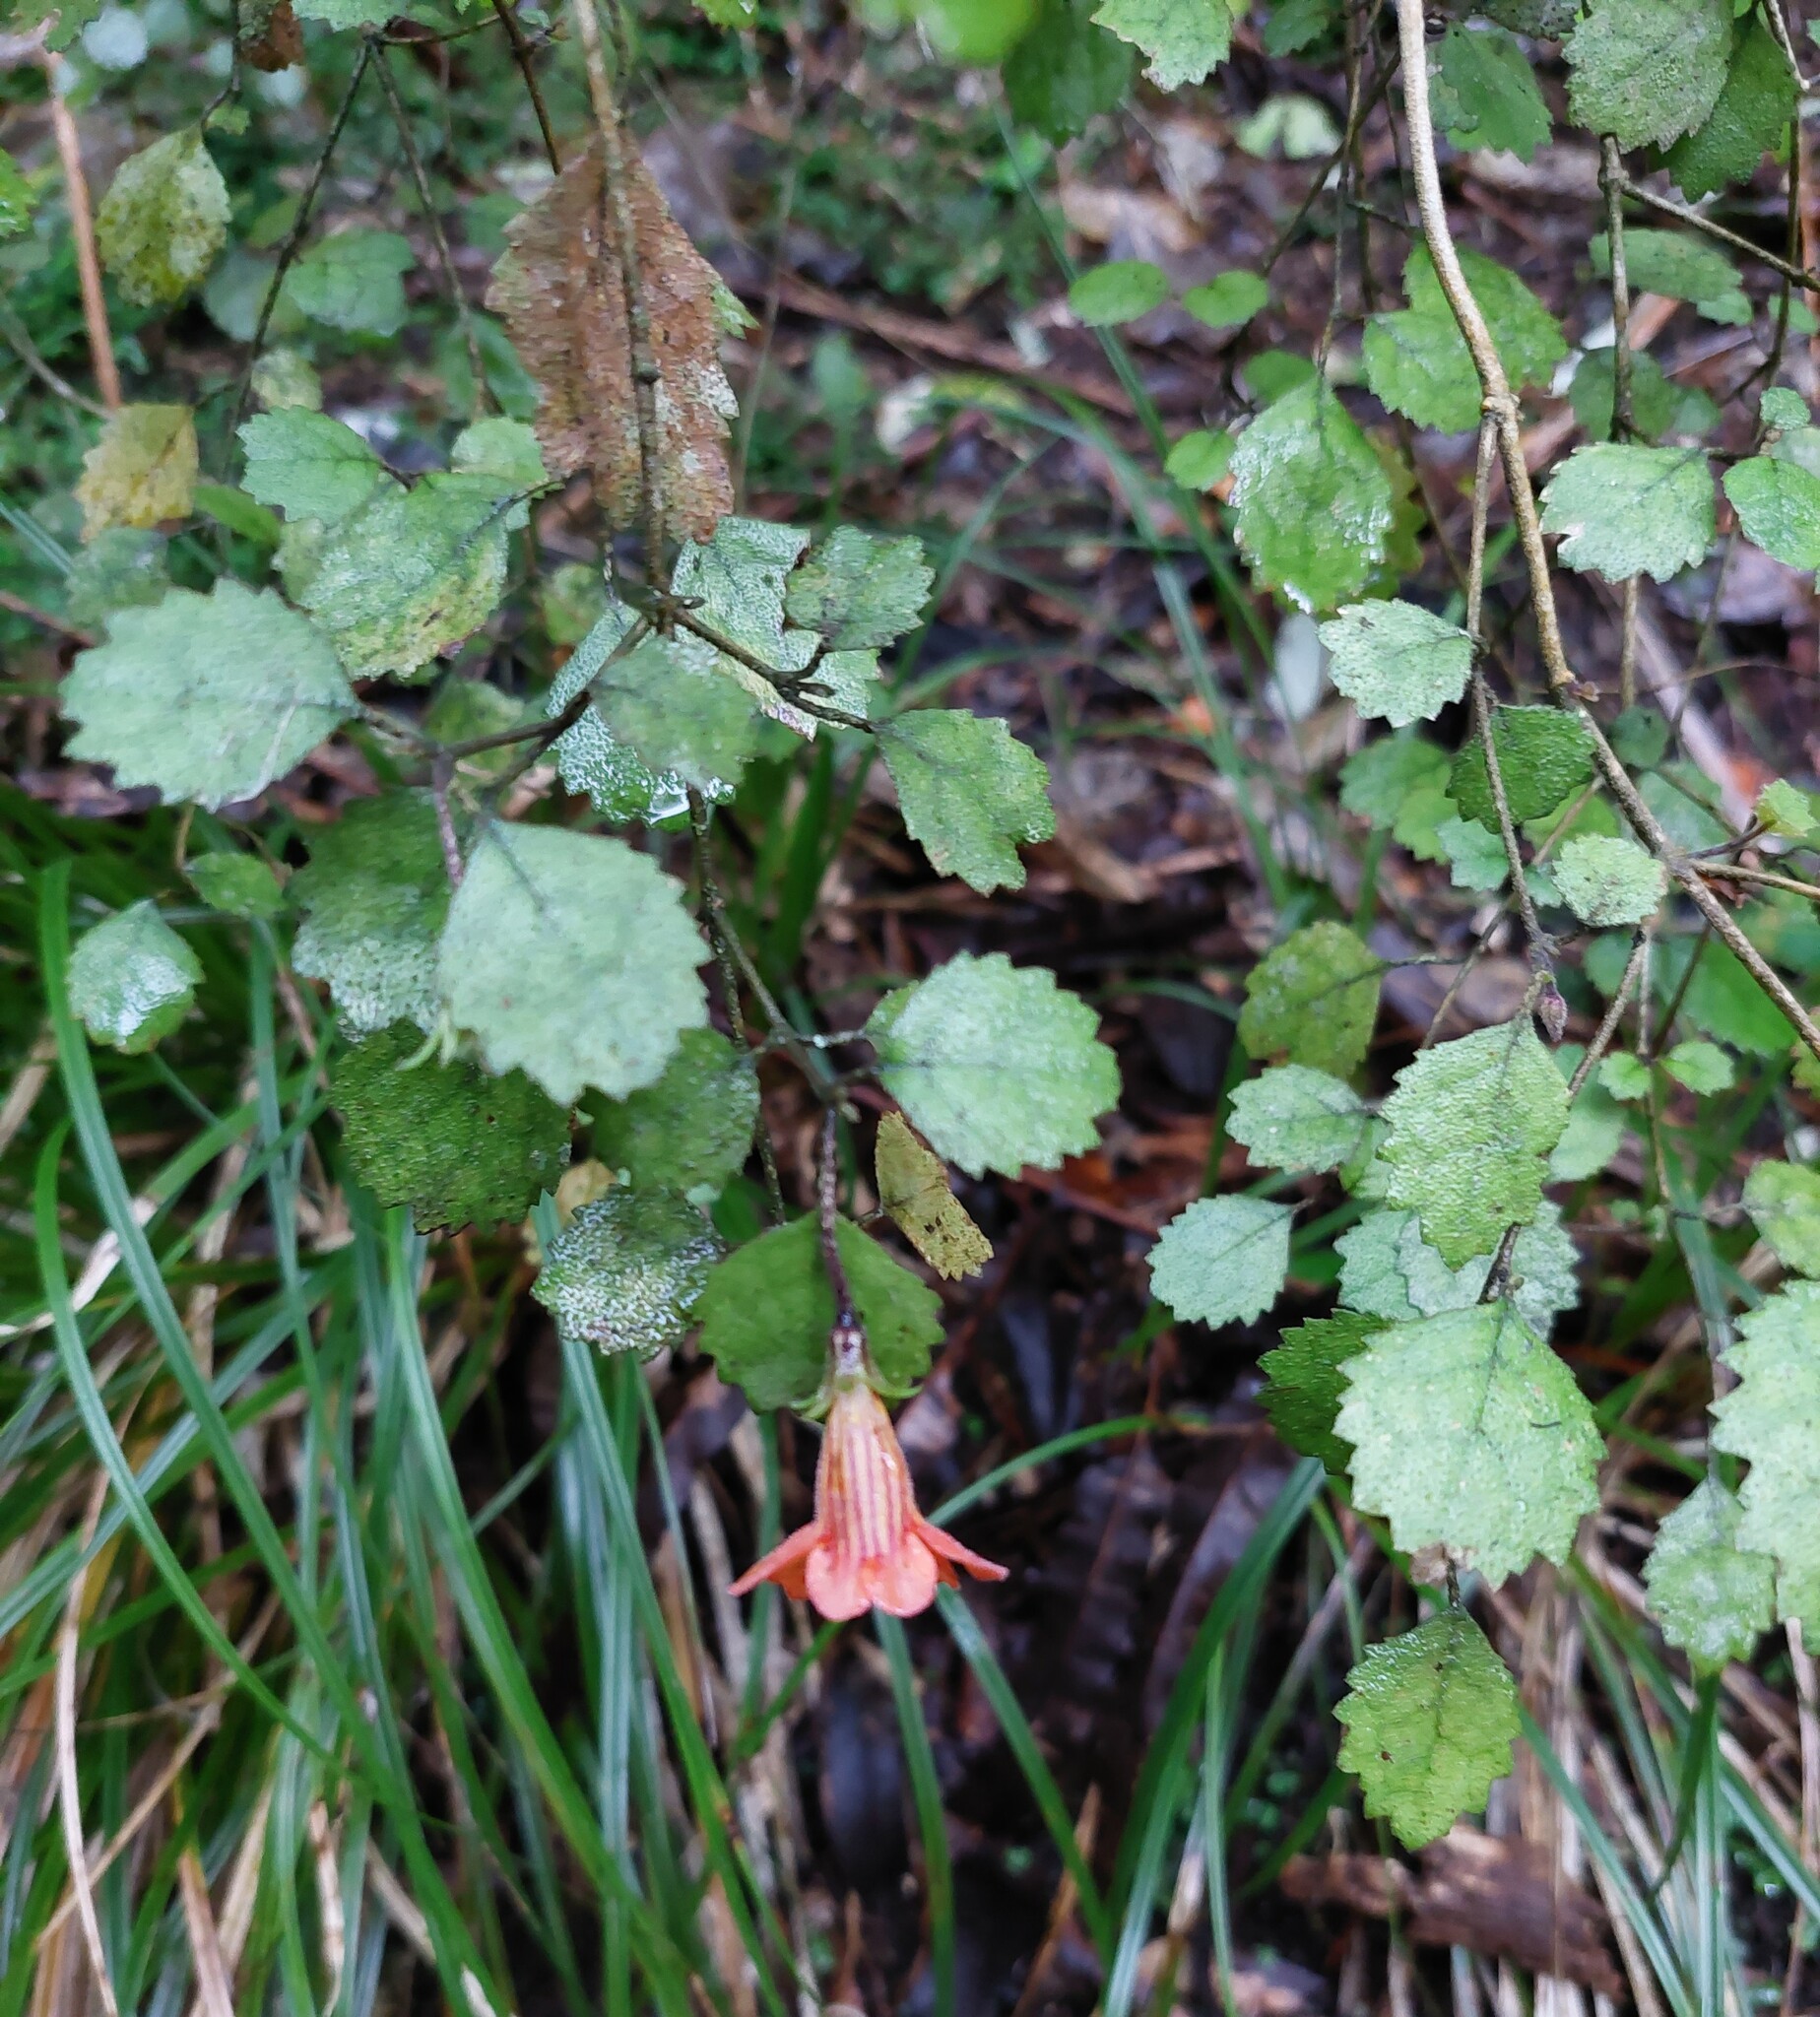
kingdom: Plantae
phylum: Tracheophyta
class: Magnoliopsida
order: Lamiales
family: Gesneriaceae
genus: Rhabdothamnus
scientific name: Rhabdothamnus solandri
